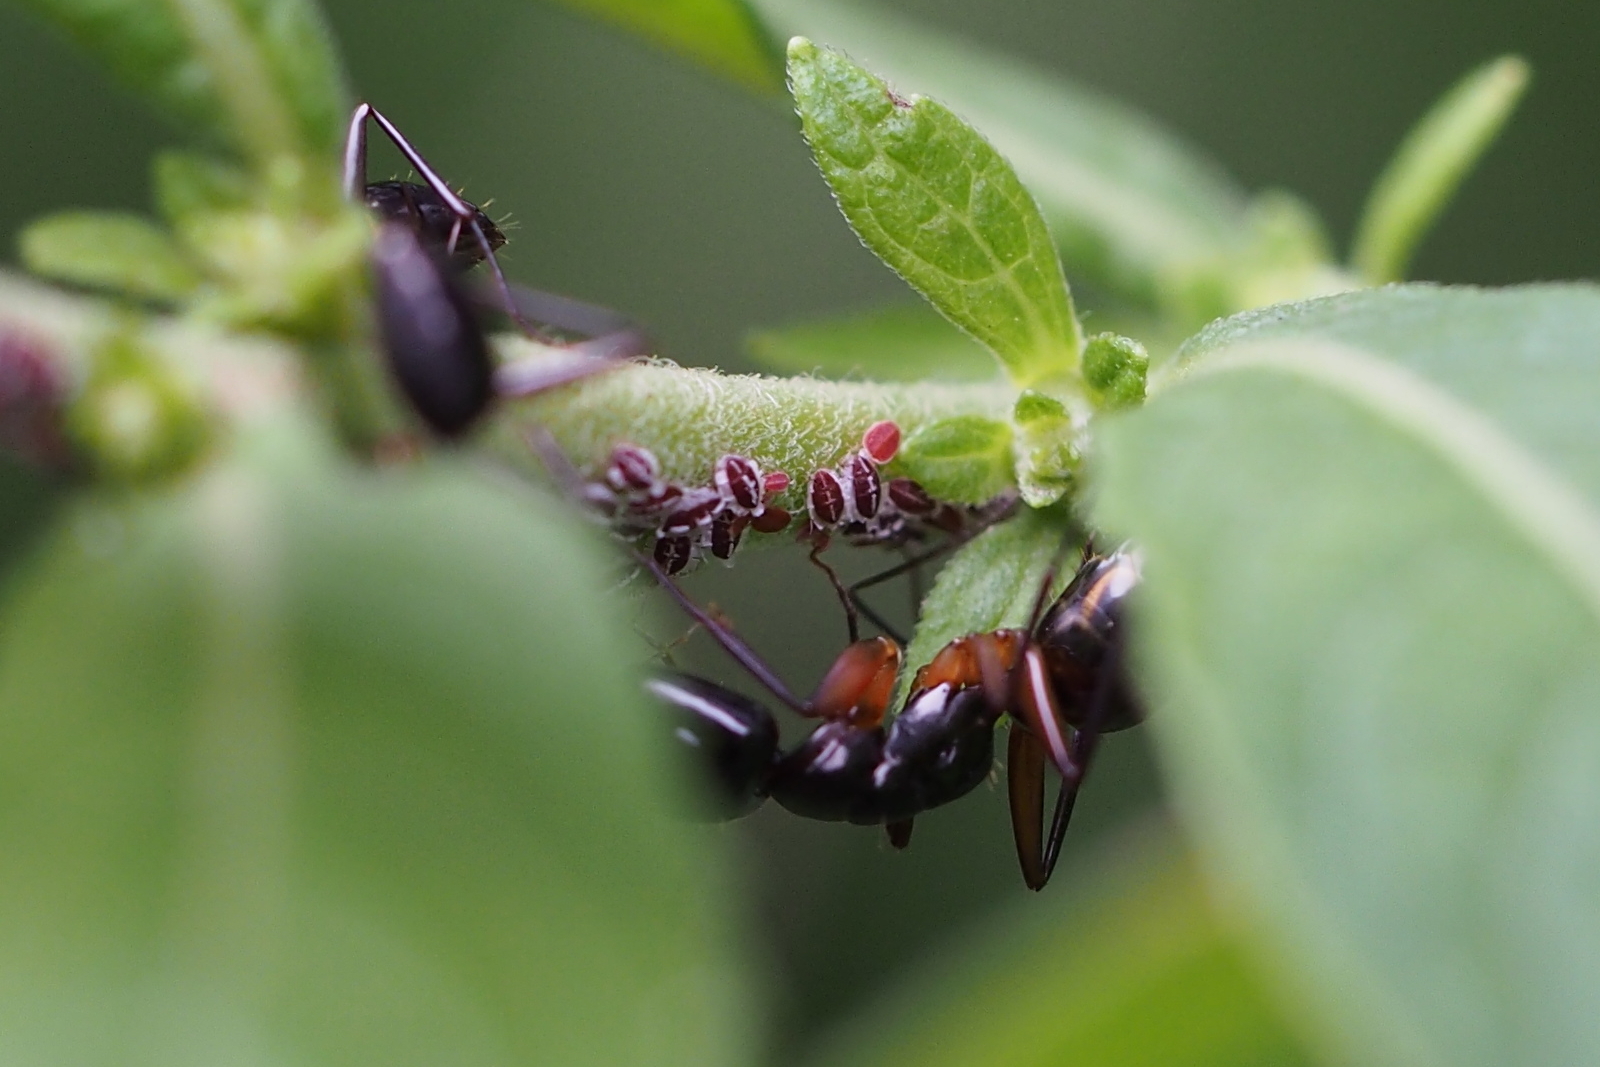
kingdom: Animalia
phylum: Arthropoda
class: Insecta
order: Hemiptera
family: Aphididae
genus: Aleurodaphis
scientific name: Aleurodaphis blumeae
